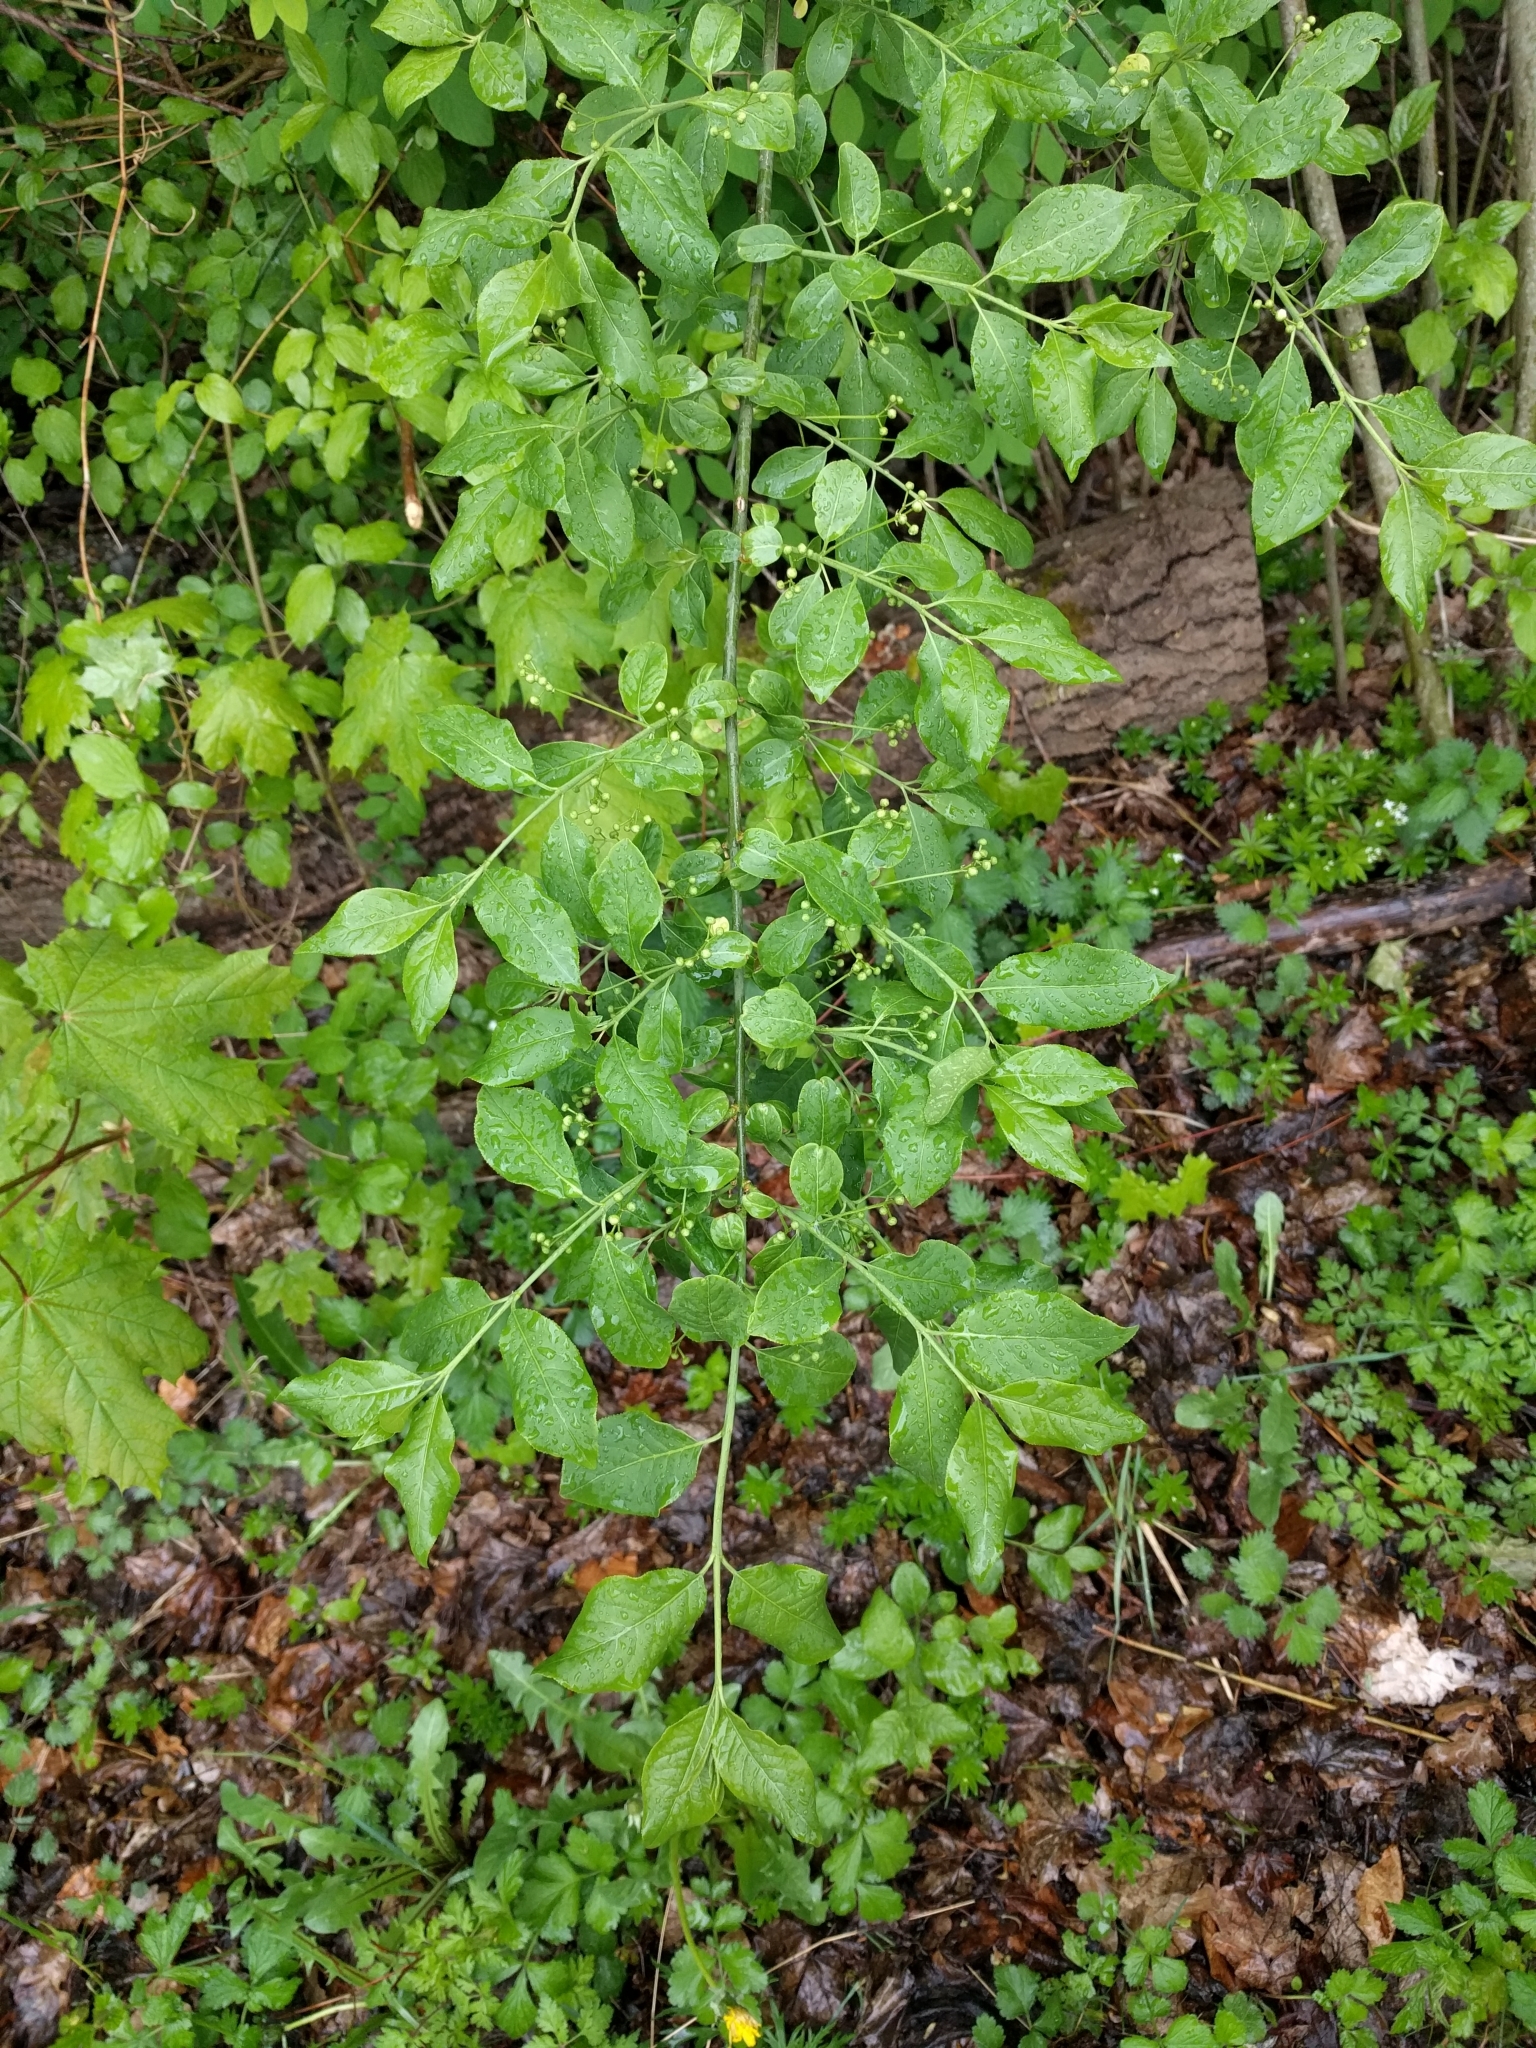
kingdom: Plantae
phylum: Tracheophyta
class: Magnoliopsida
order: Celastrales
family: Celastraceae
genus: Euonymus
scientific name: Euonymus europaeus
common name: Spindle
